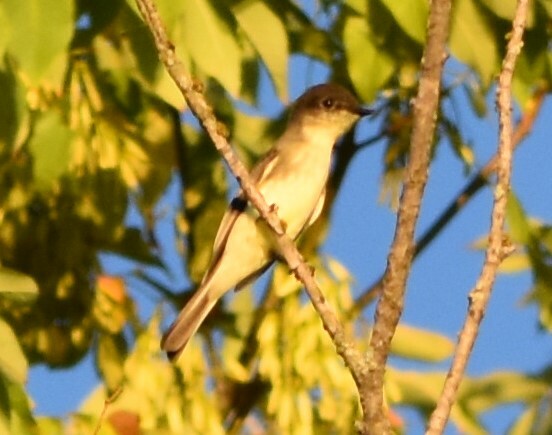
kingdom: Animalia
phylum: Chordata
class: Aves
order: Passeriformes
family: Tyrannidae
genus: Sayornis
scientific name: Sayornis phoebe
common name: Eastern phoebe
